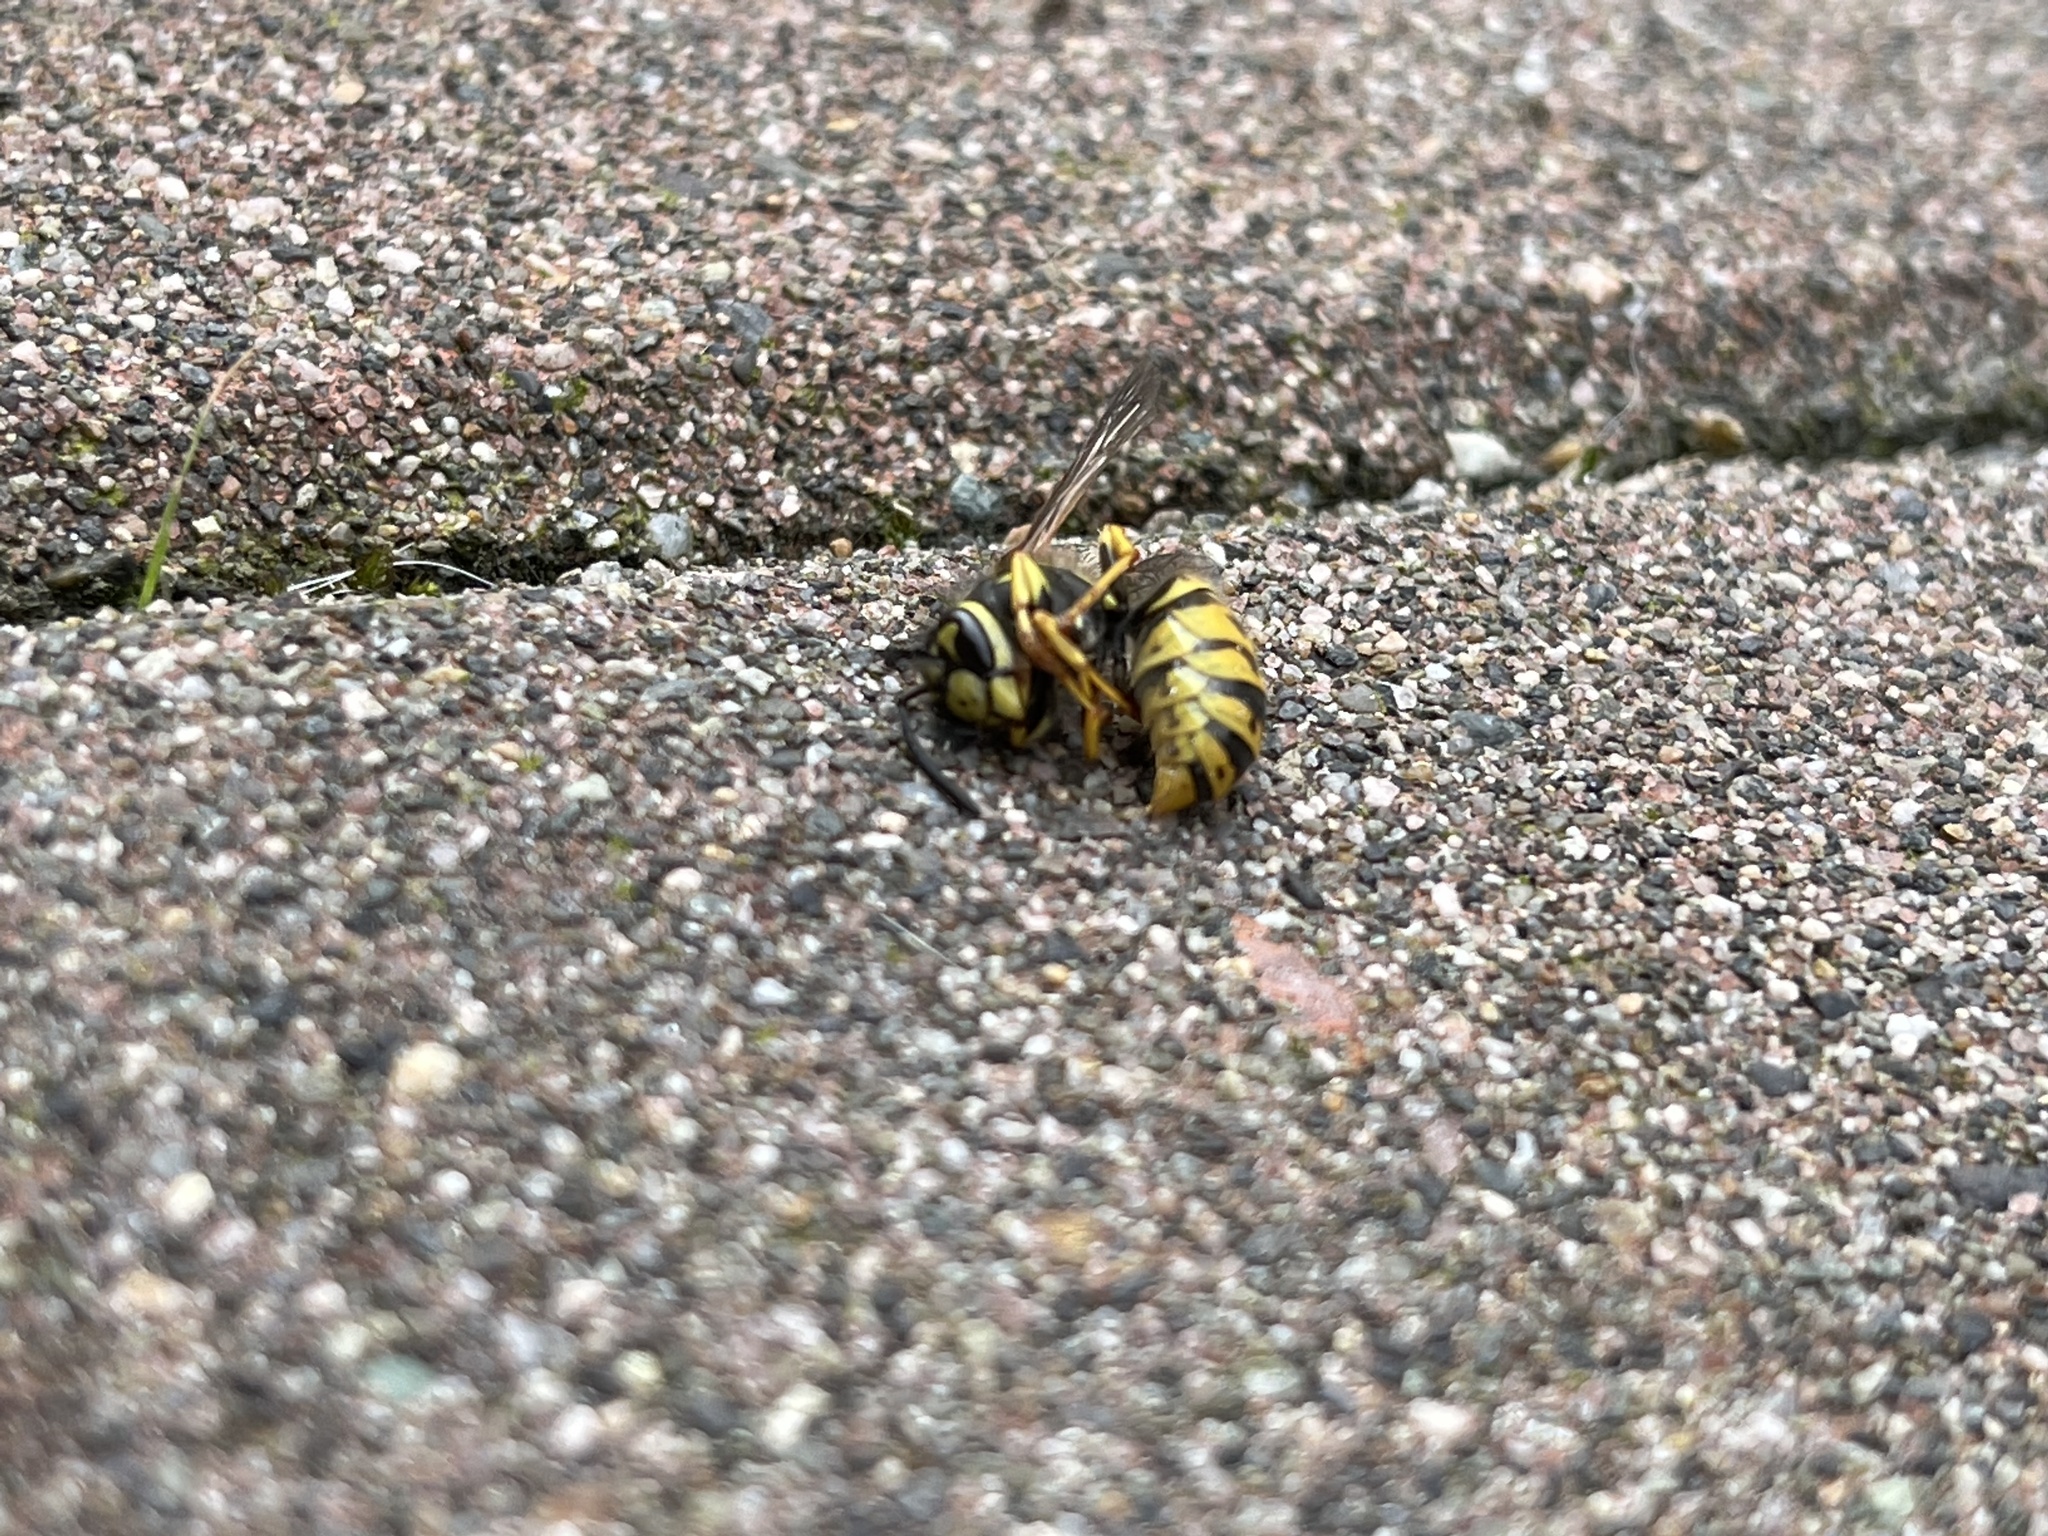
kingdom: Animalia
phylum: Arthropoda
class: Insecta
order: Hymenoptera
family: Vespidae
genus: Vespula
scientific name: Vespula germanica
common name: German wasp
